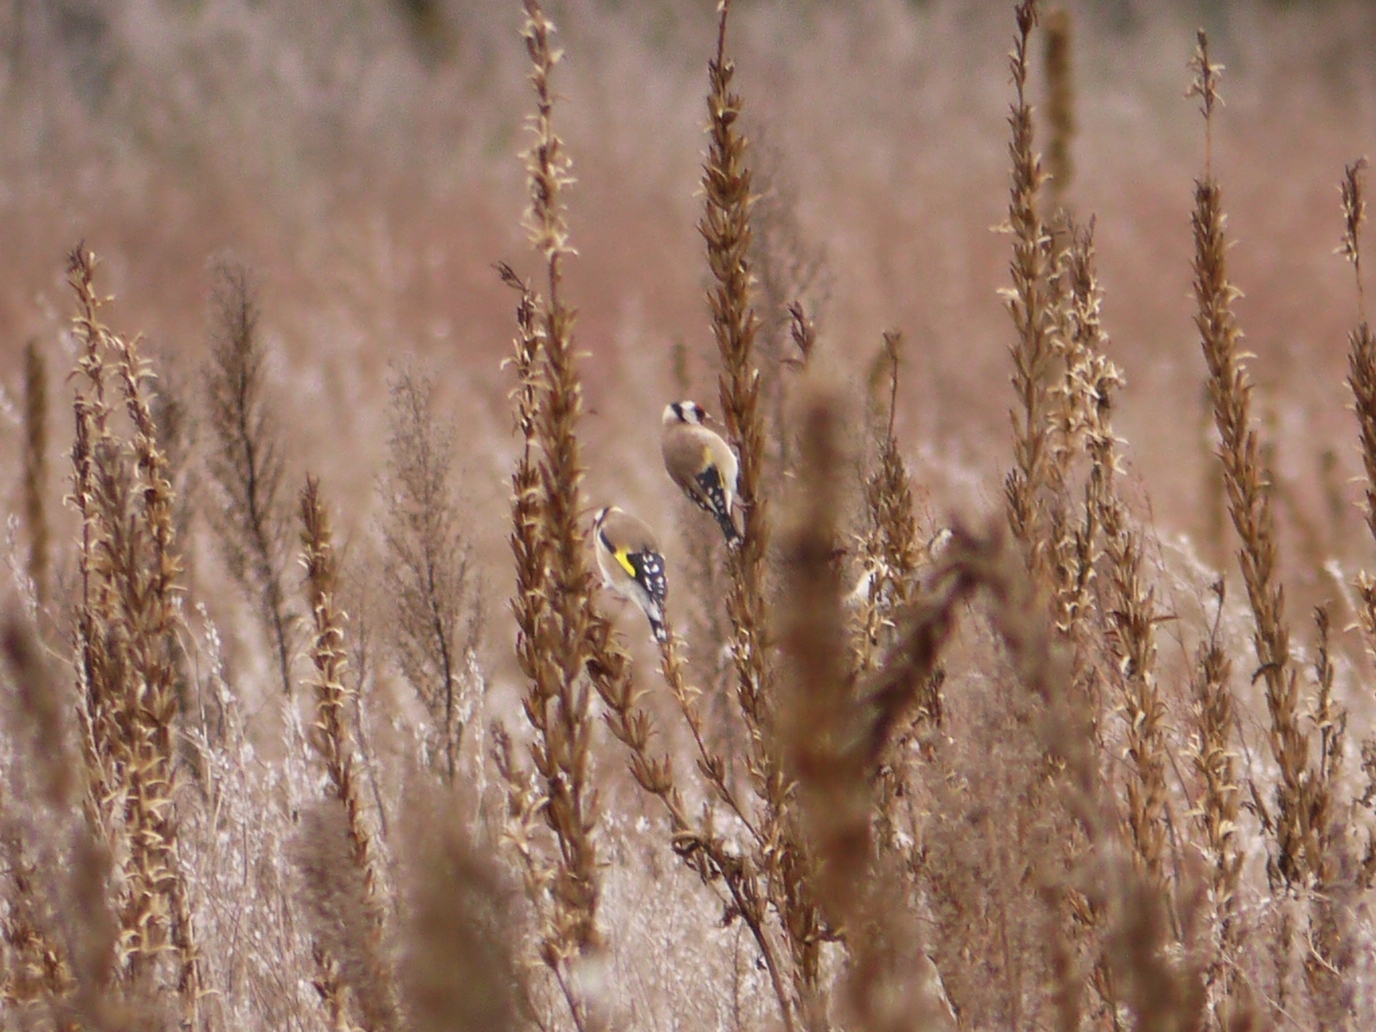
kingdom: Animalia
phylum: Chordata
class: Aves
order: Passeriformes
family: Fringillidae
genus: Carduelis
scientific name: Carduelis carduelis
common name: European goldfinch
